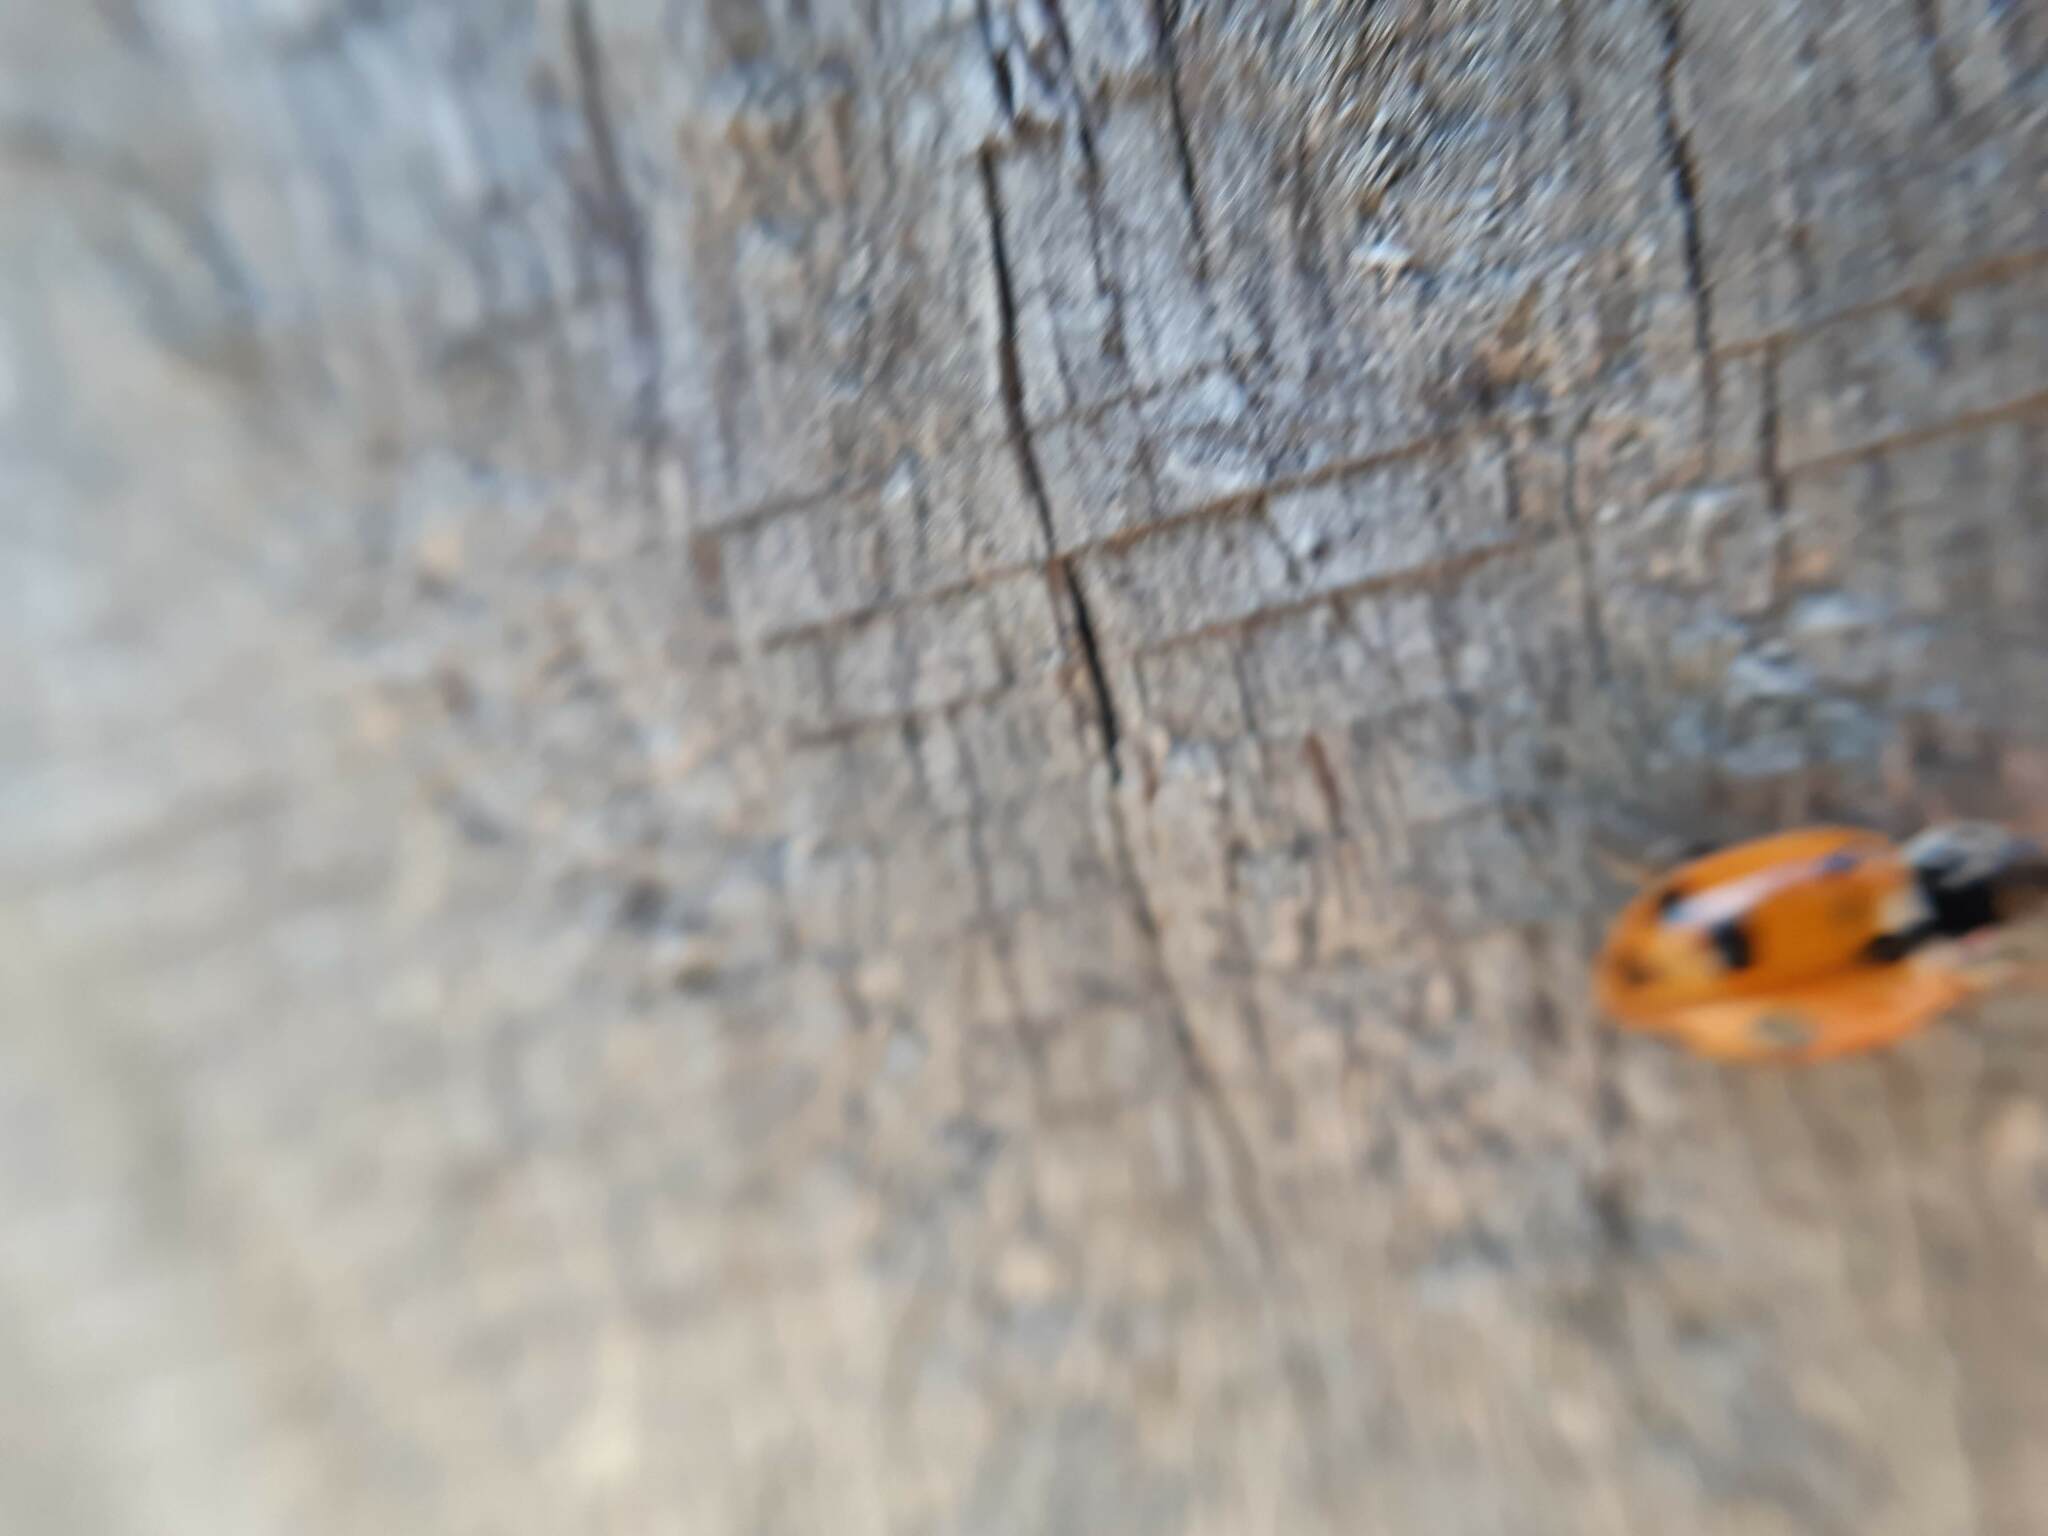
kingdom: Animalia
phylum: Arthropoda
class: Insecta
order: Coleoptera
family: Coccinellidae
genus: Hippodamia
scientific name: Hippodamia variegata
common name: Ladybird beetle
